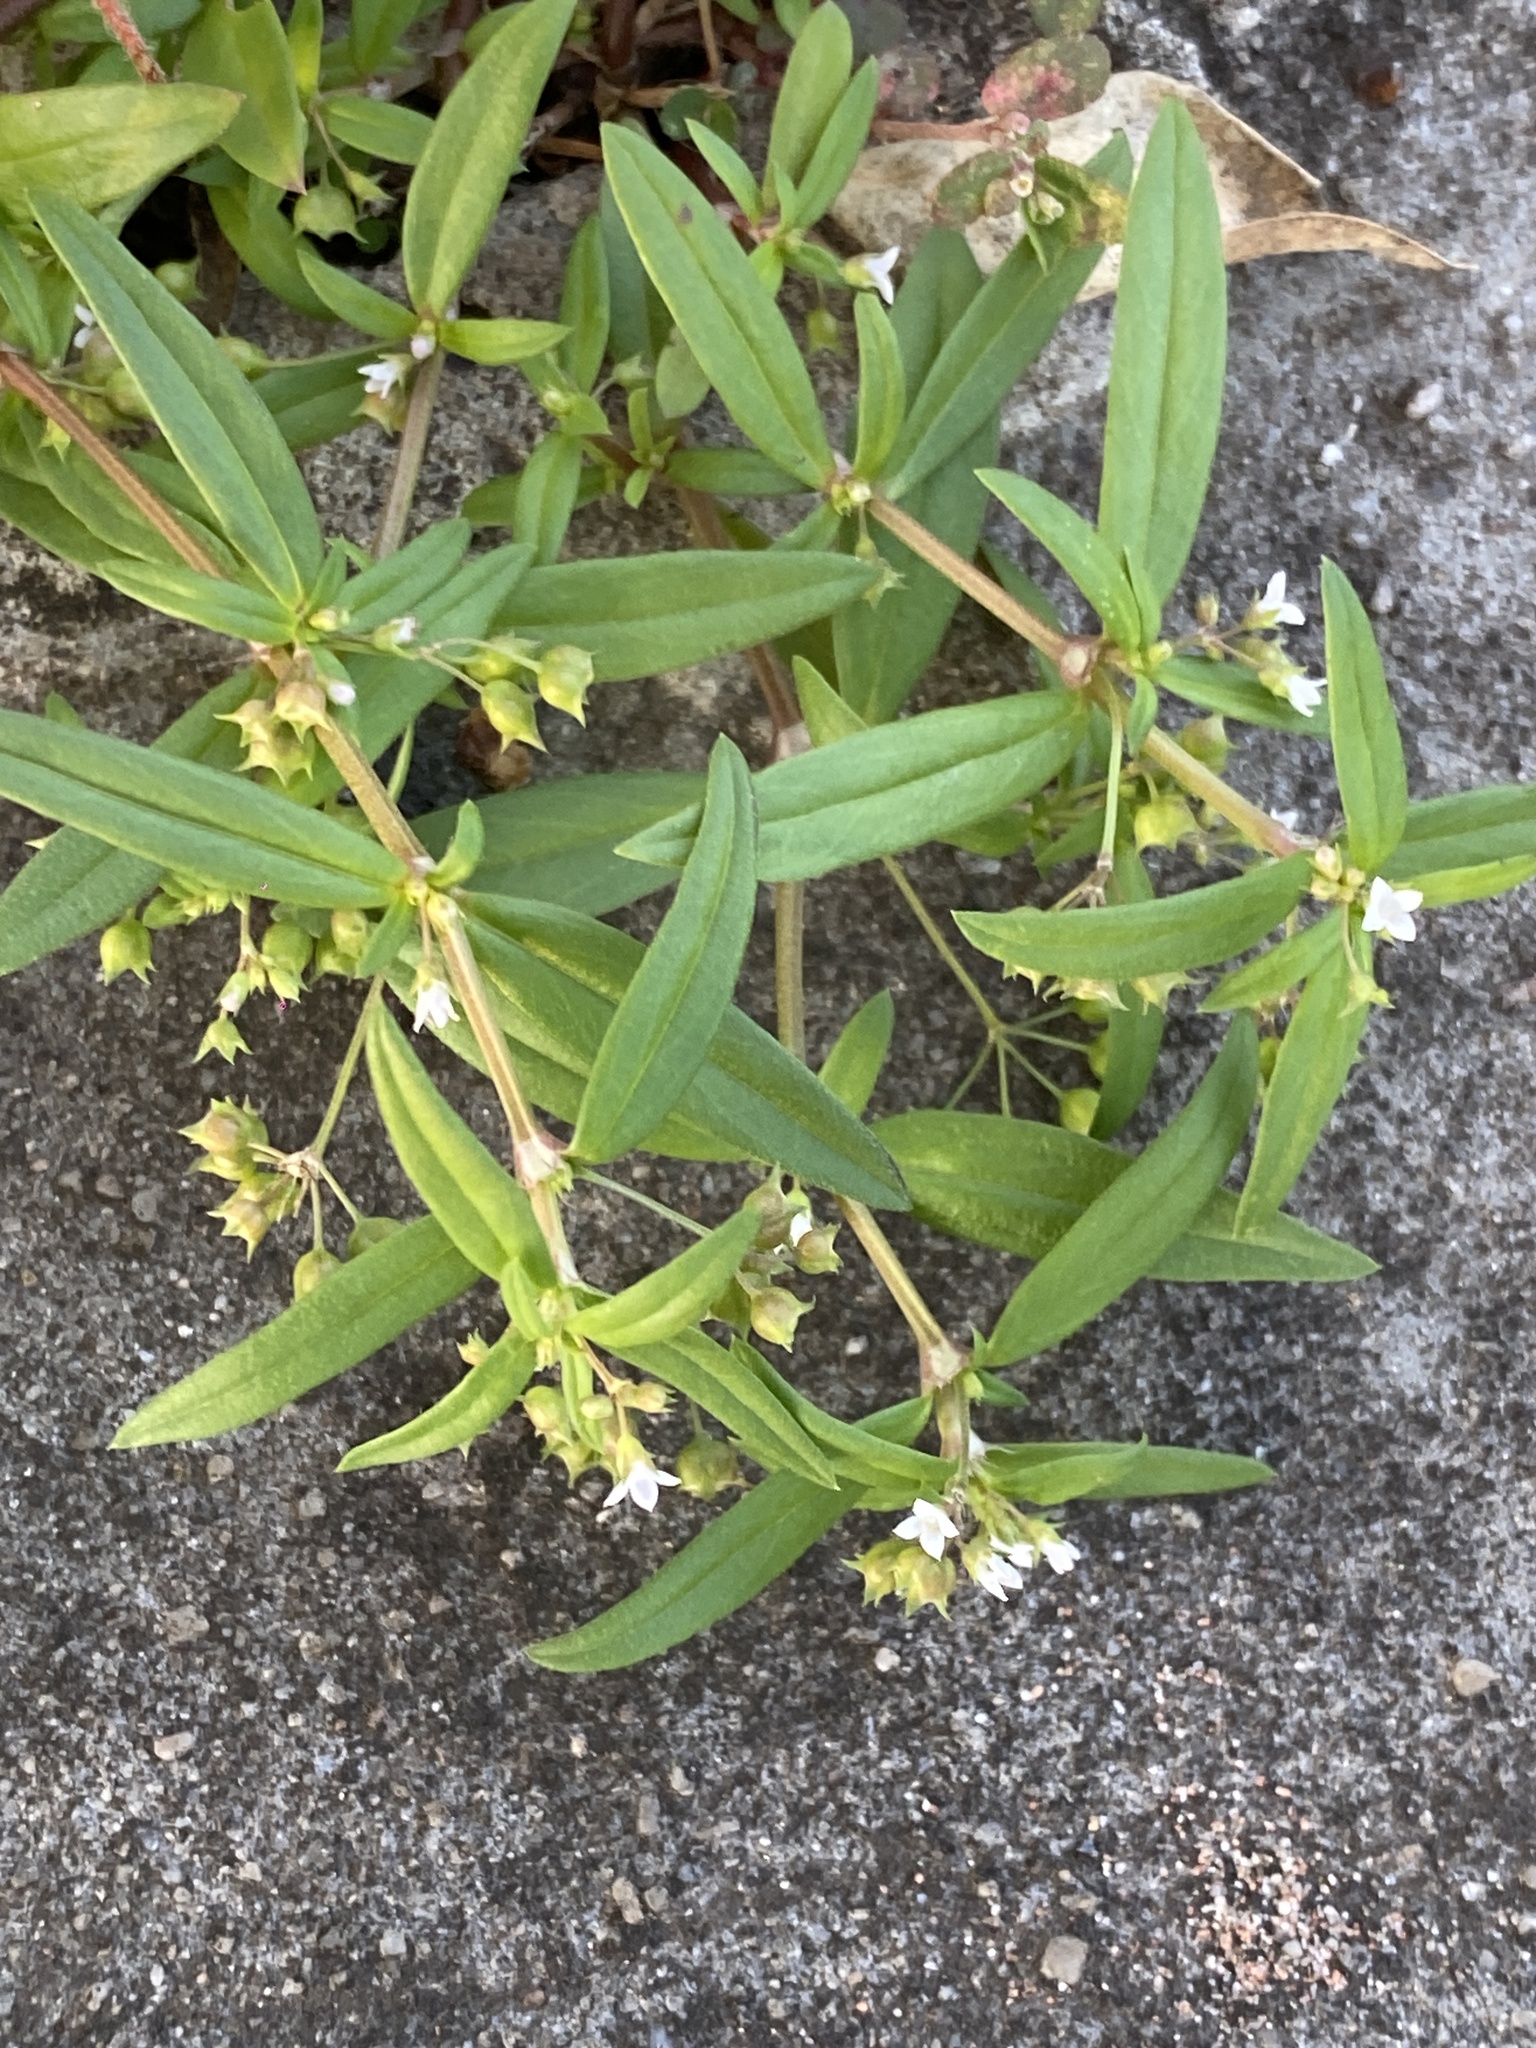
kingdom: Plantae
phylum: Tracheophyta
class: Magnoliopsida
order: Gentianales
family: Rubiaceae
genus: Oldenlandia
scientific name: Oldenlandia corymbosa
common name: Flat-top mille graines
